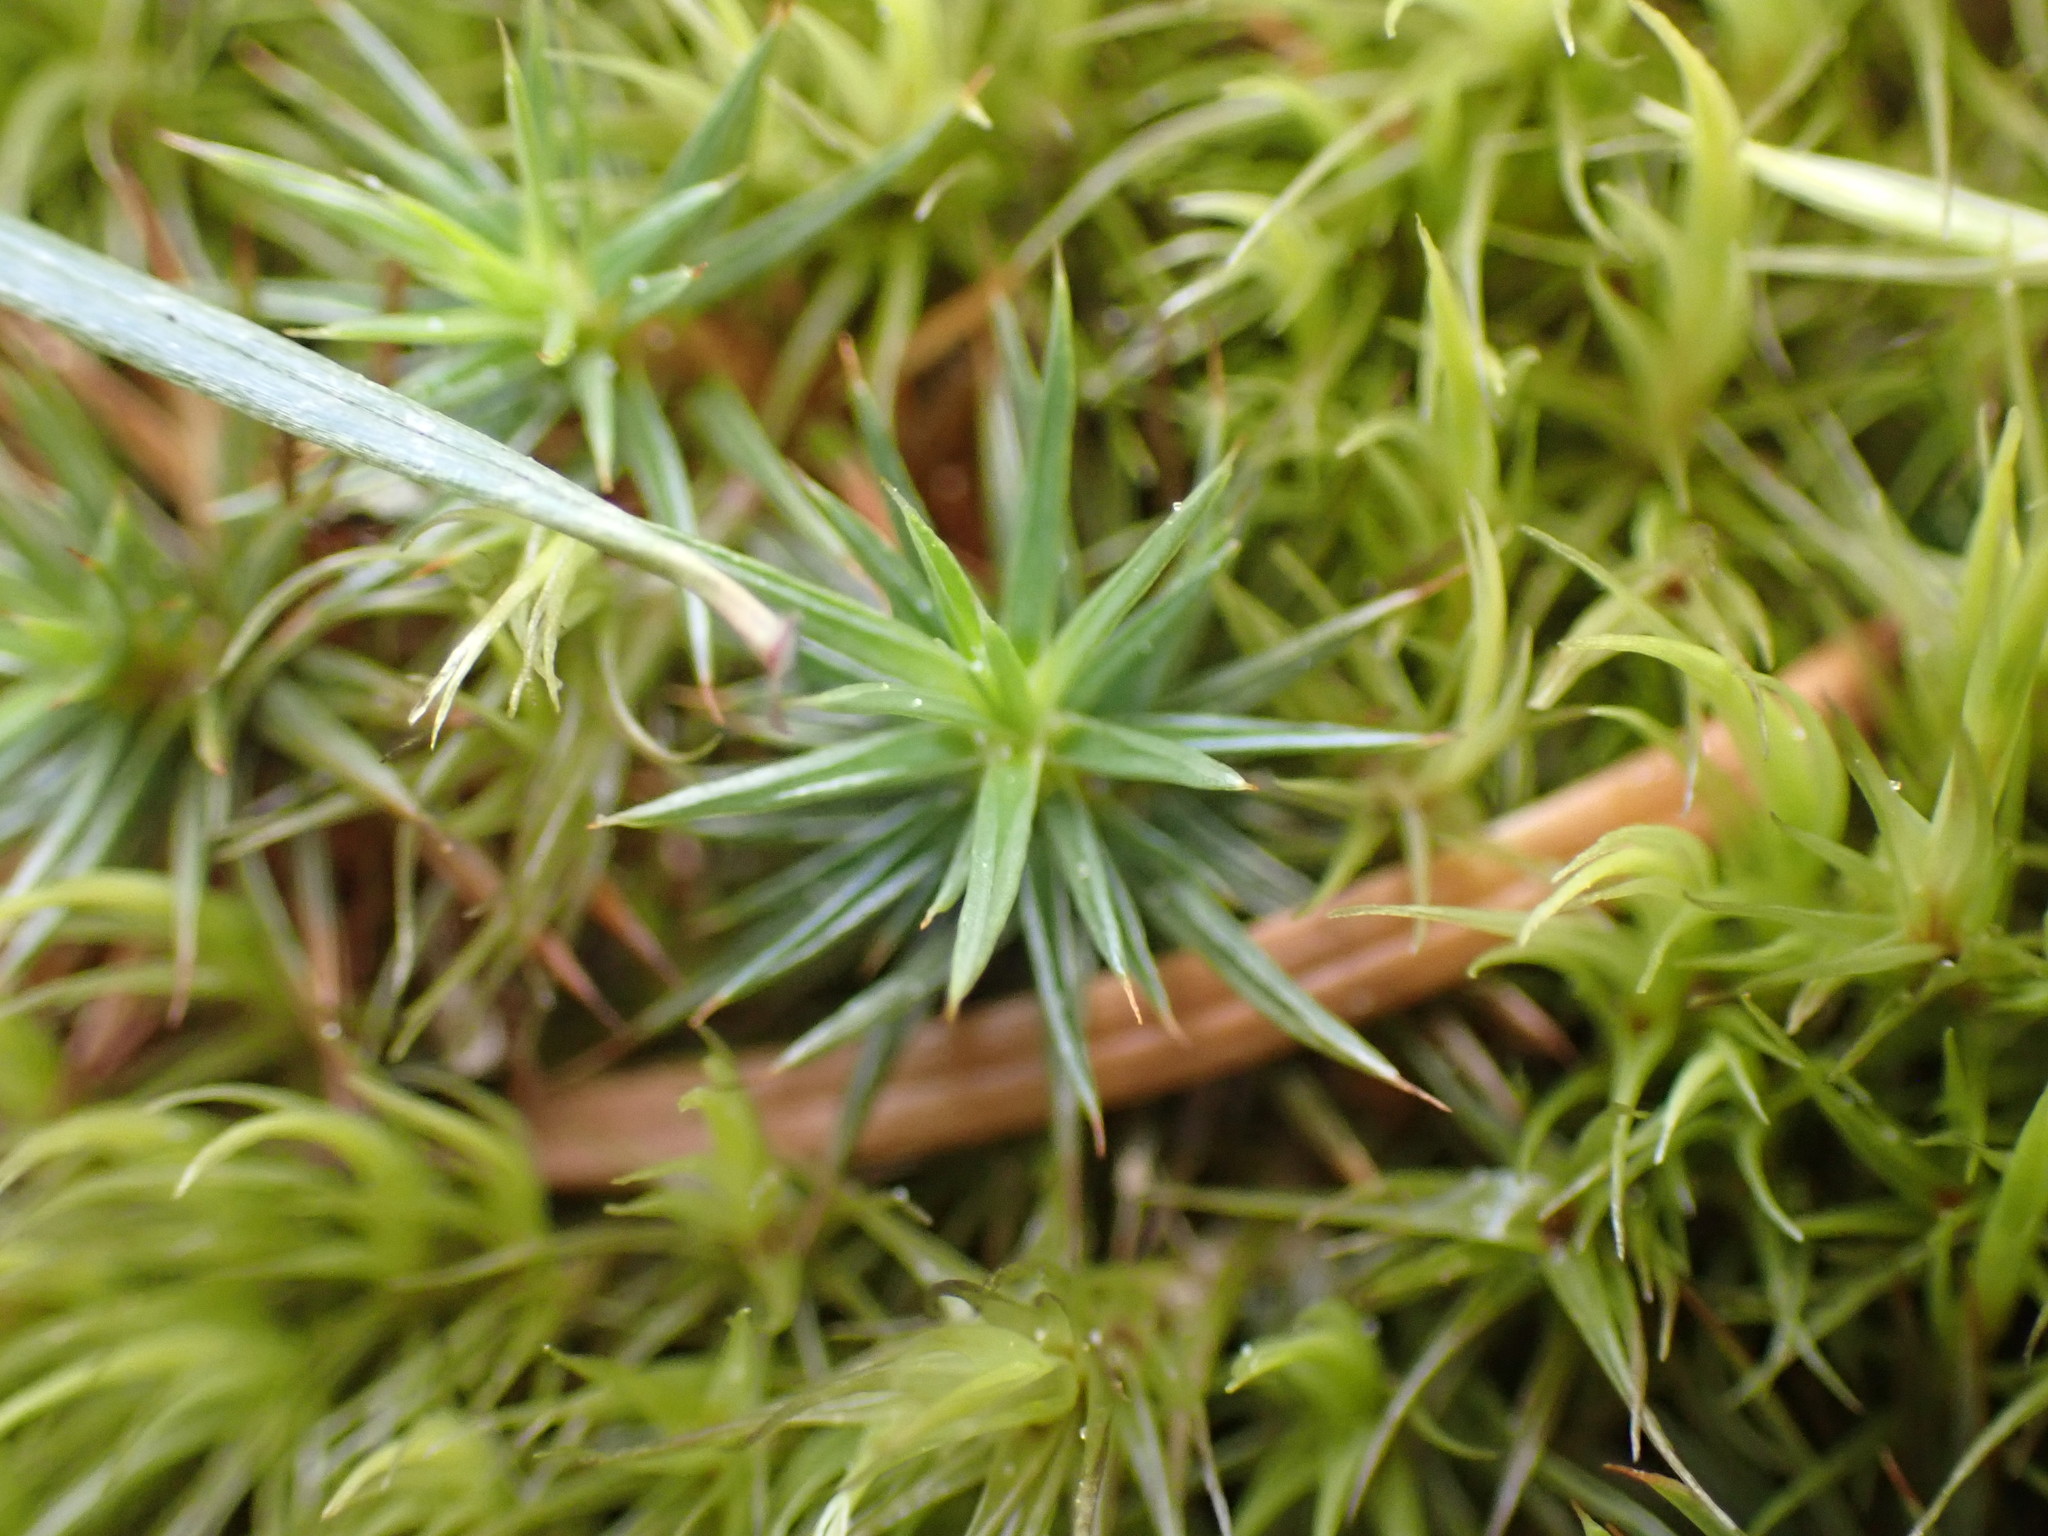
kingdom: Plantae
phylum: Bryophyta
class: Polytrichopsida
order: Polytrichales
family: Polytrichaceae
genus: Polytrichum
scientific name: Polytrichum juniperinum
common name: Juniper haircap moss
